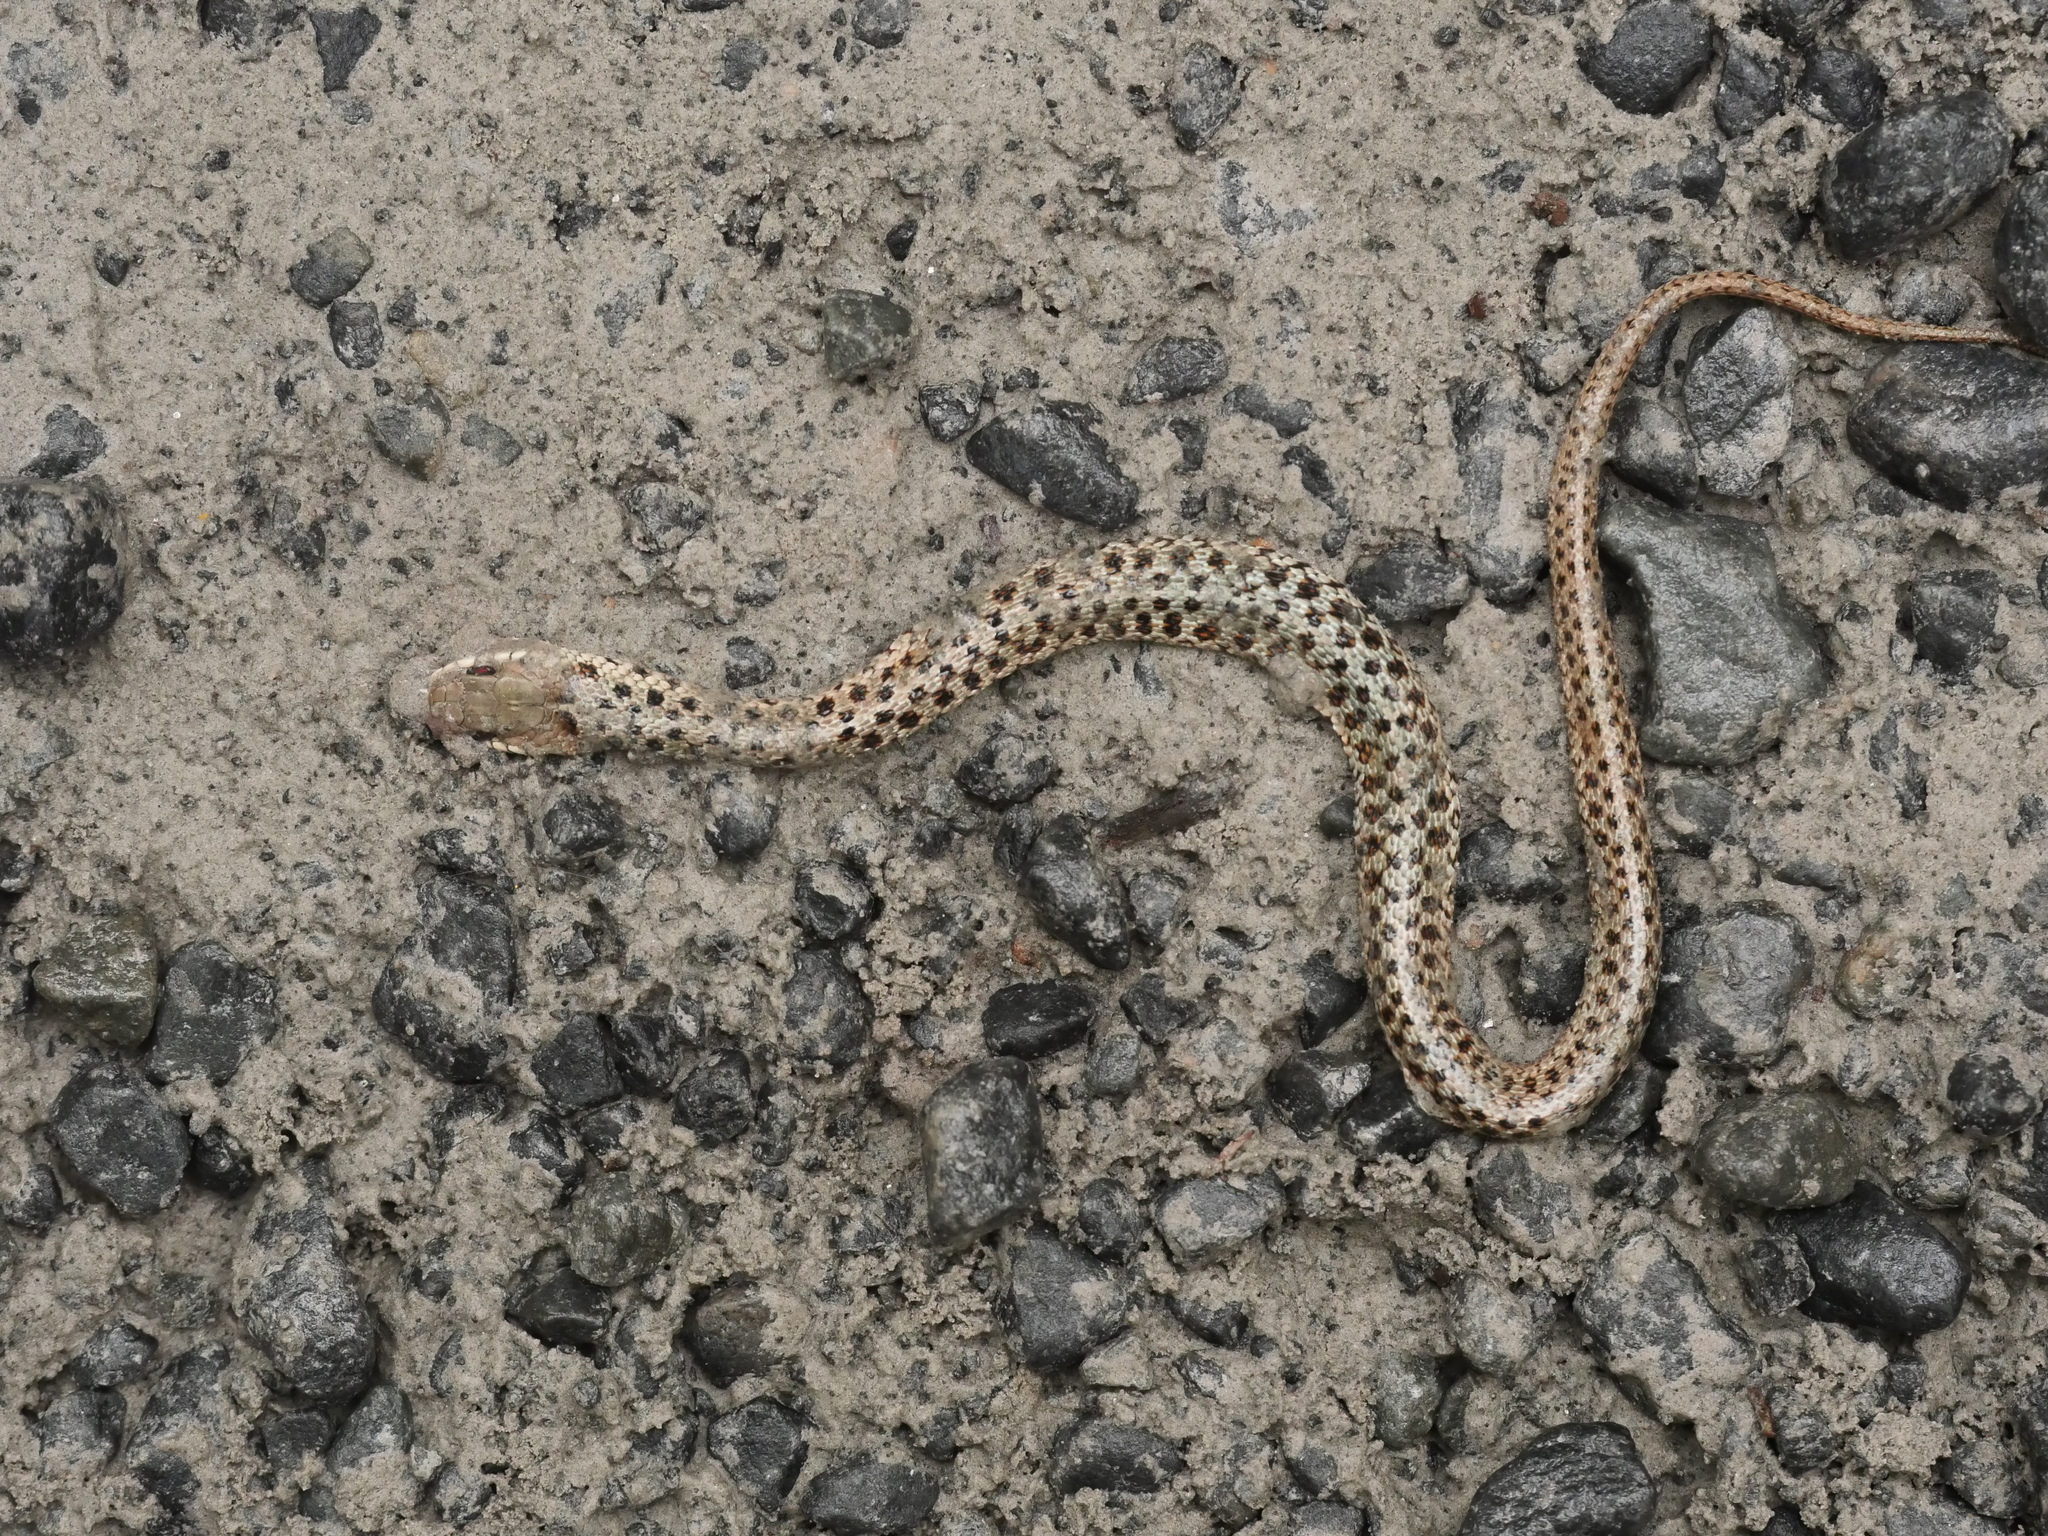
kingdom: Animalia
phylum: Chordata
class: Squamata
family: Colubridae
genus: Thamnophis
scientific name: Thamnophis sirtalis
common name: Common garter snake
